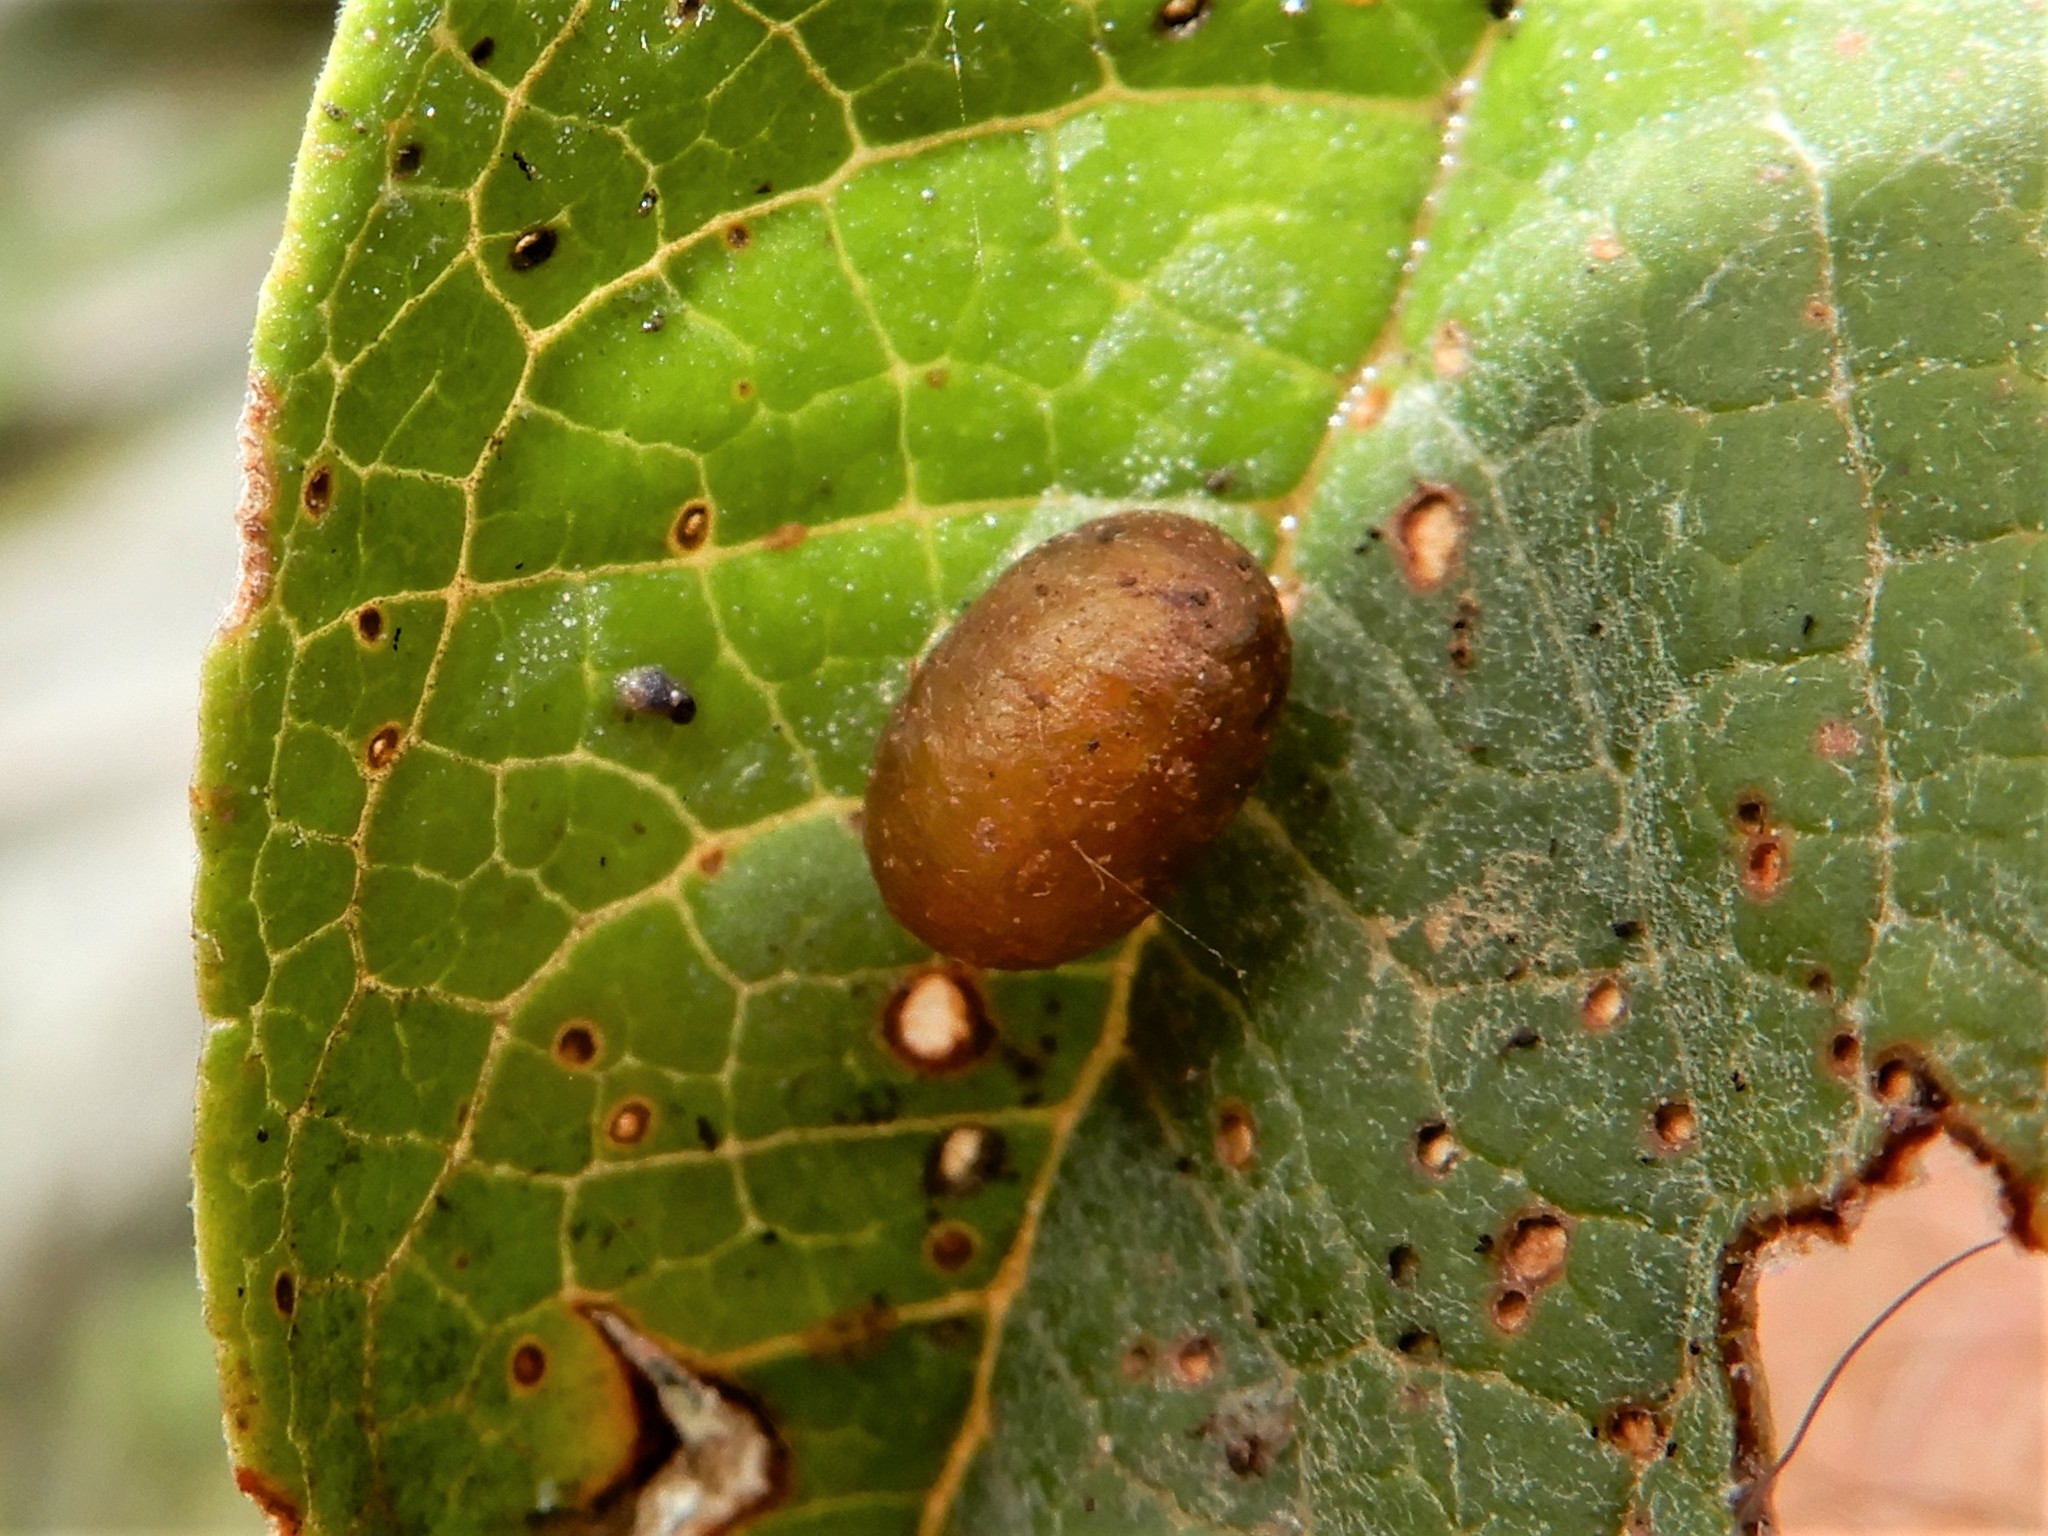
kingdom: Animalia
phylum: Arthropoda
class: Insecta
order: Coleoptera
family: Curculionidae
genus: Cleopus
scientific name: Cleopus japonicus
